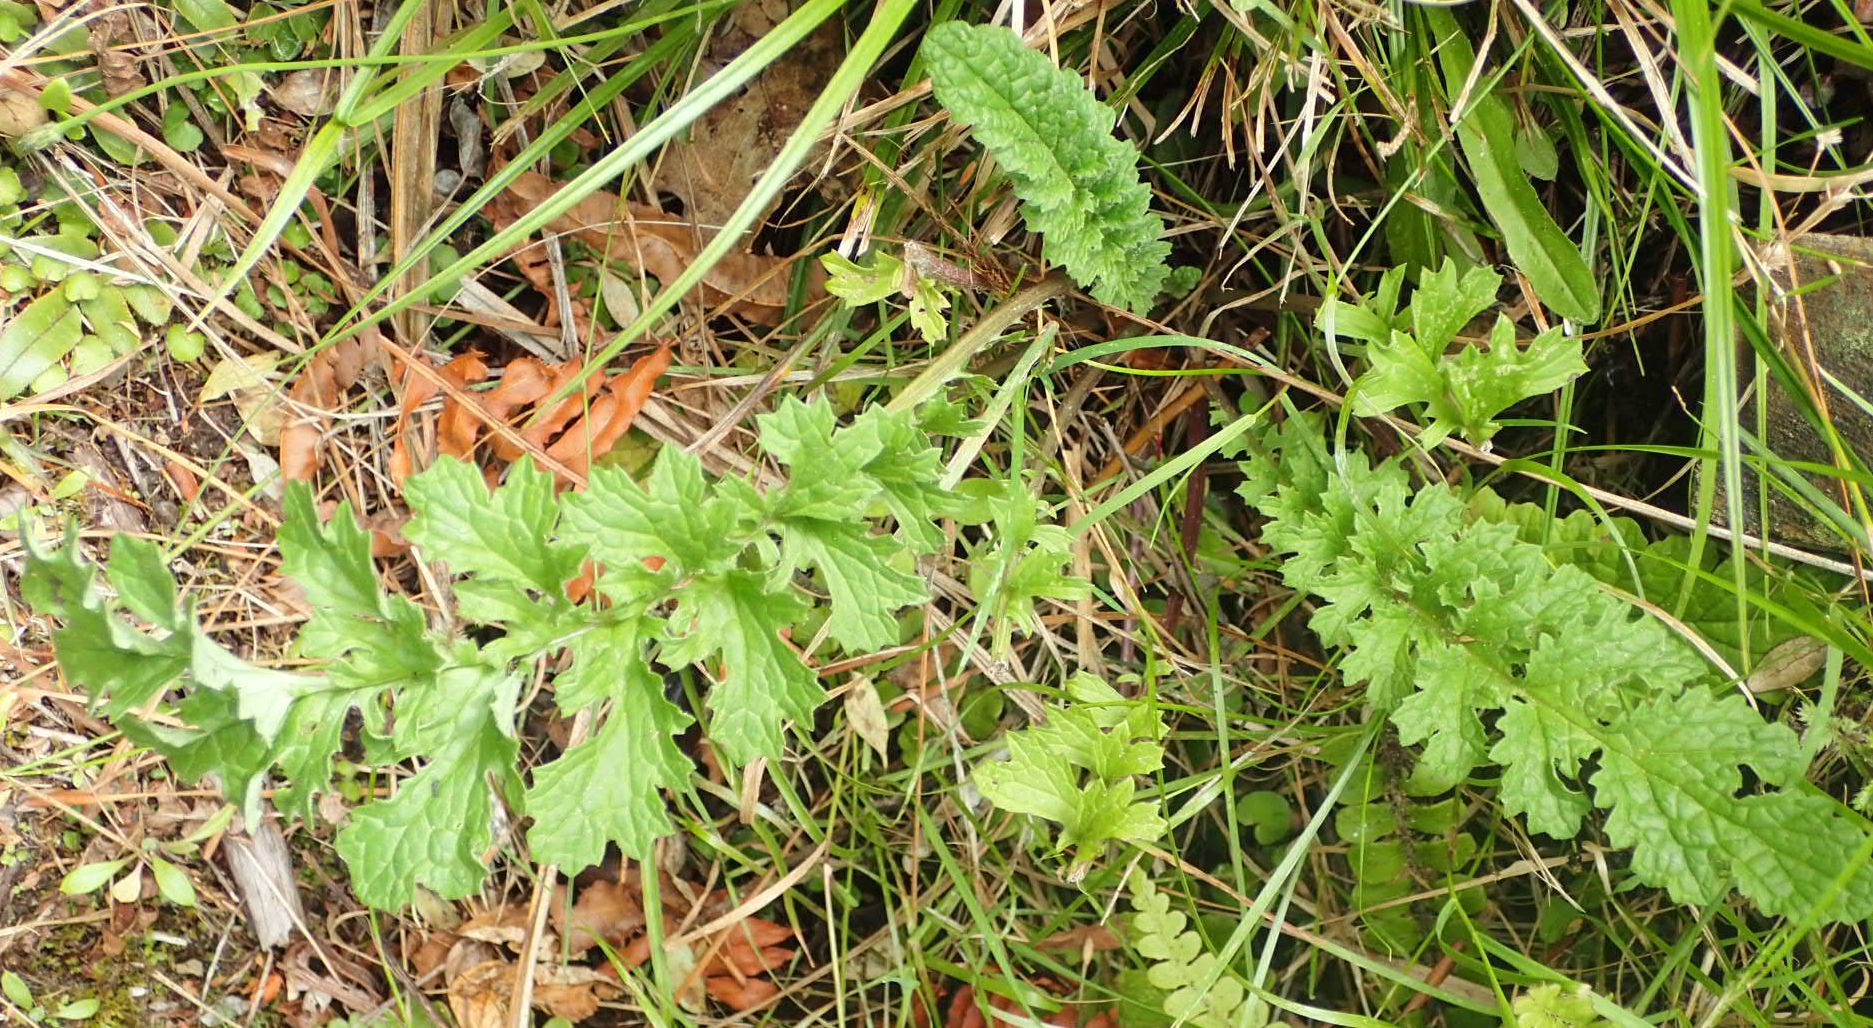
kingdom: Plantae
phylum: Tracheophyta
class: Magnoliopsida
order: Asterales
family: Asteraceae
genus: Jacobaea
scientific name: Jacobaea vulgaris
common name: Stinking willie
